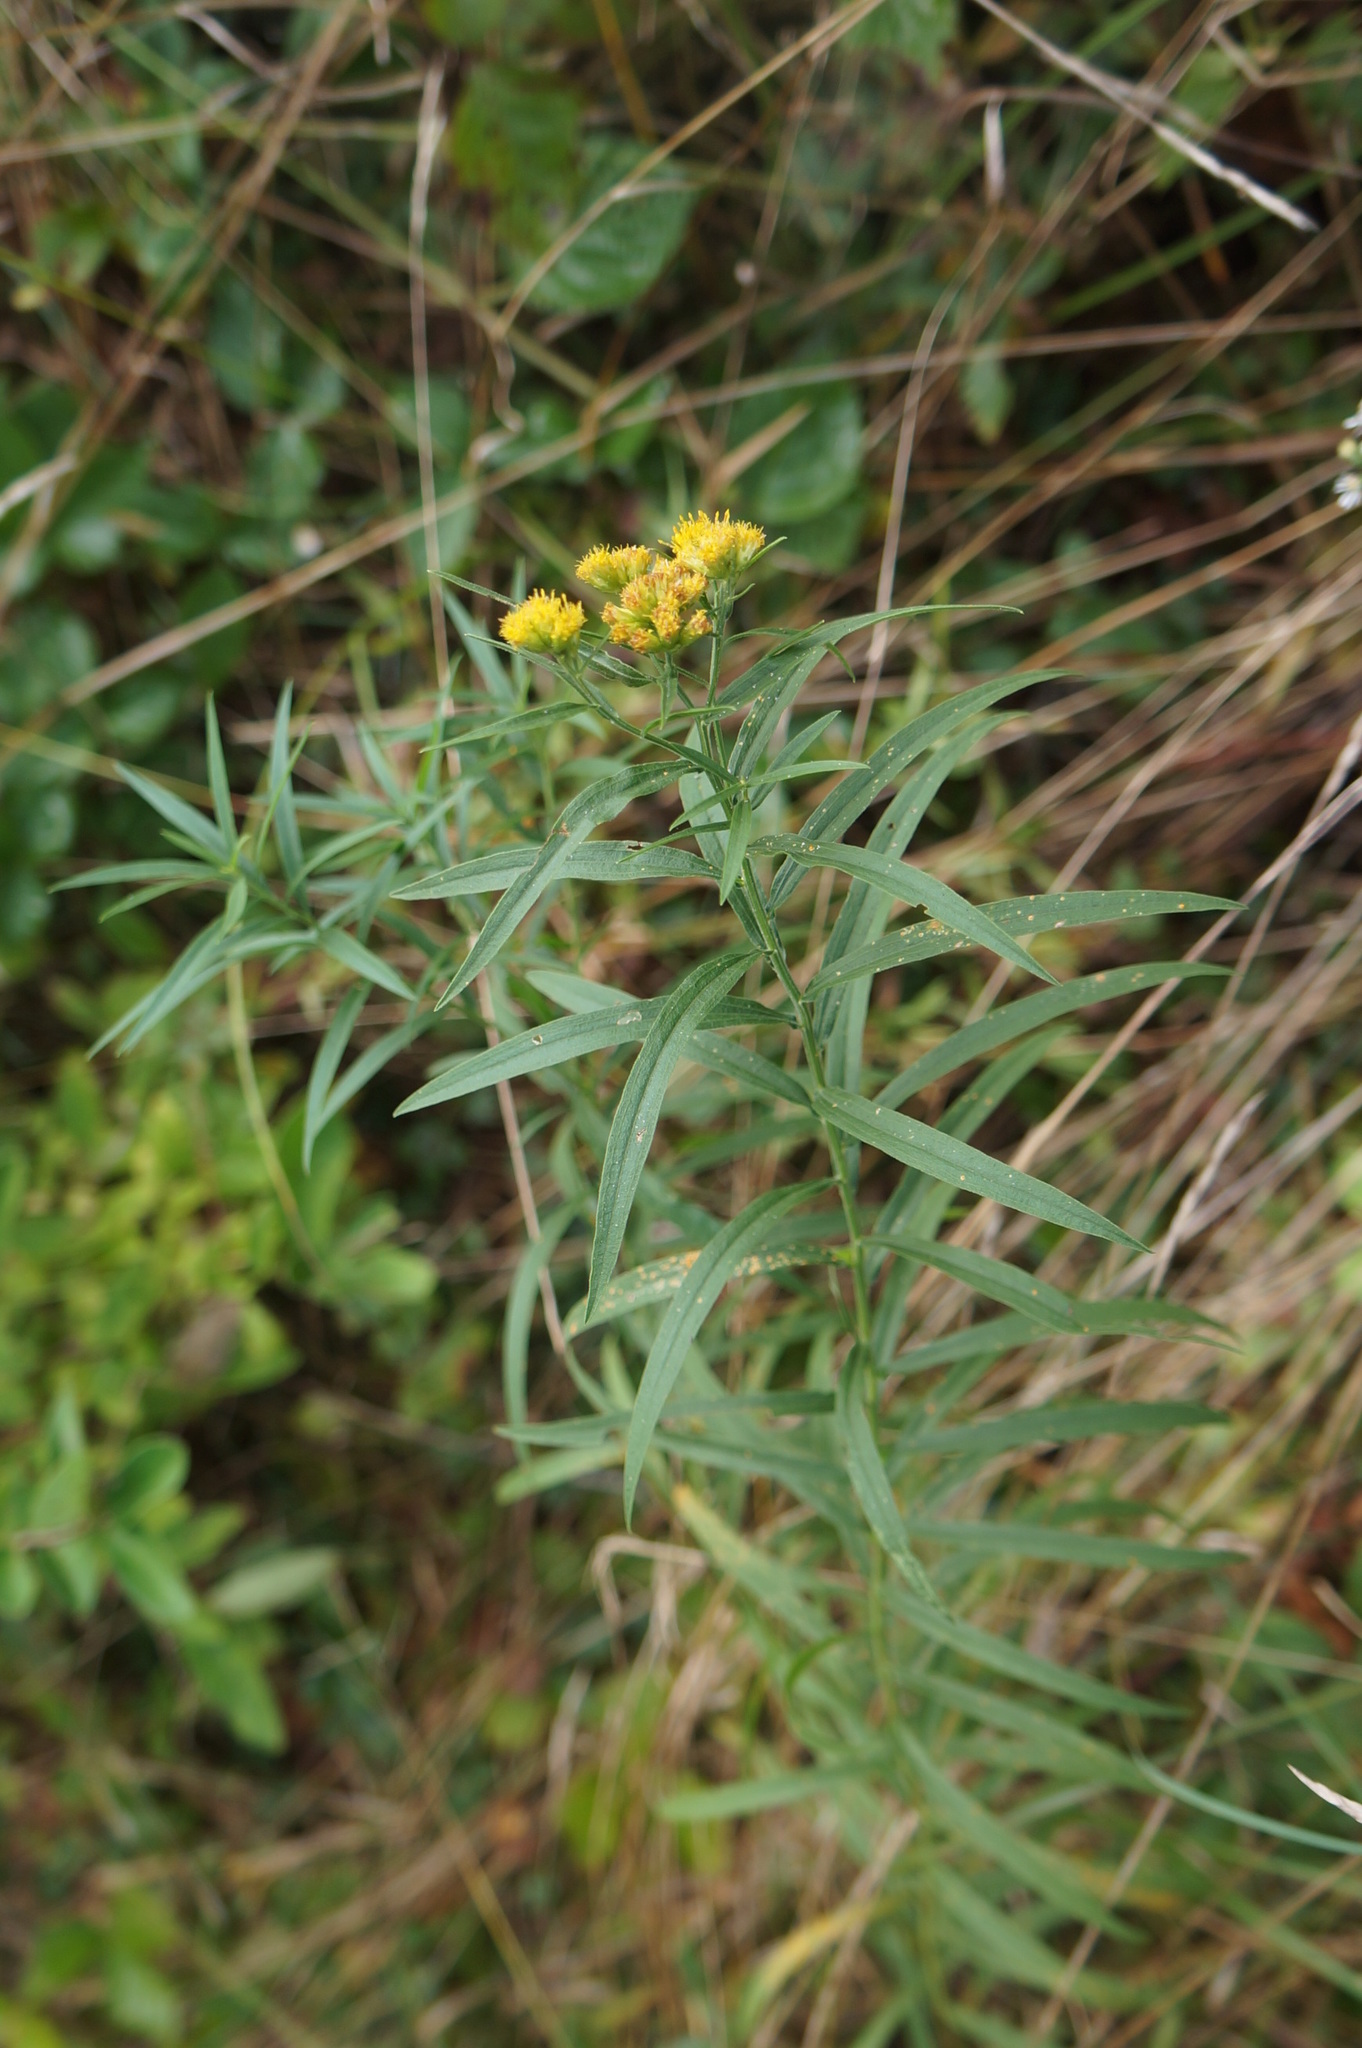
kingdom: Plantae
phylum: Tracheophyta
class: Magnoliopsida
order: Asterales
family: Asteraceae
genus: Euthamia
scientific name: Euthamia graminifolia
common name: Common goldentop
